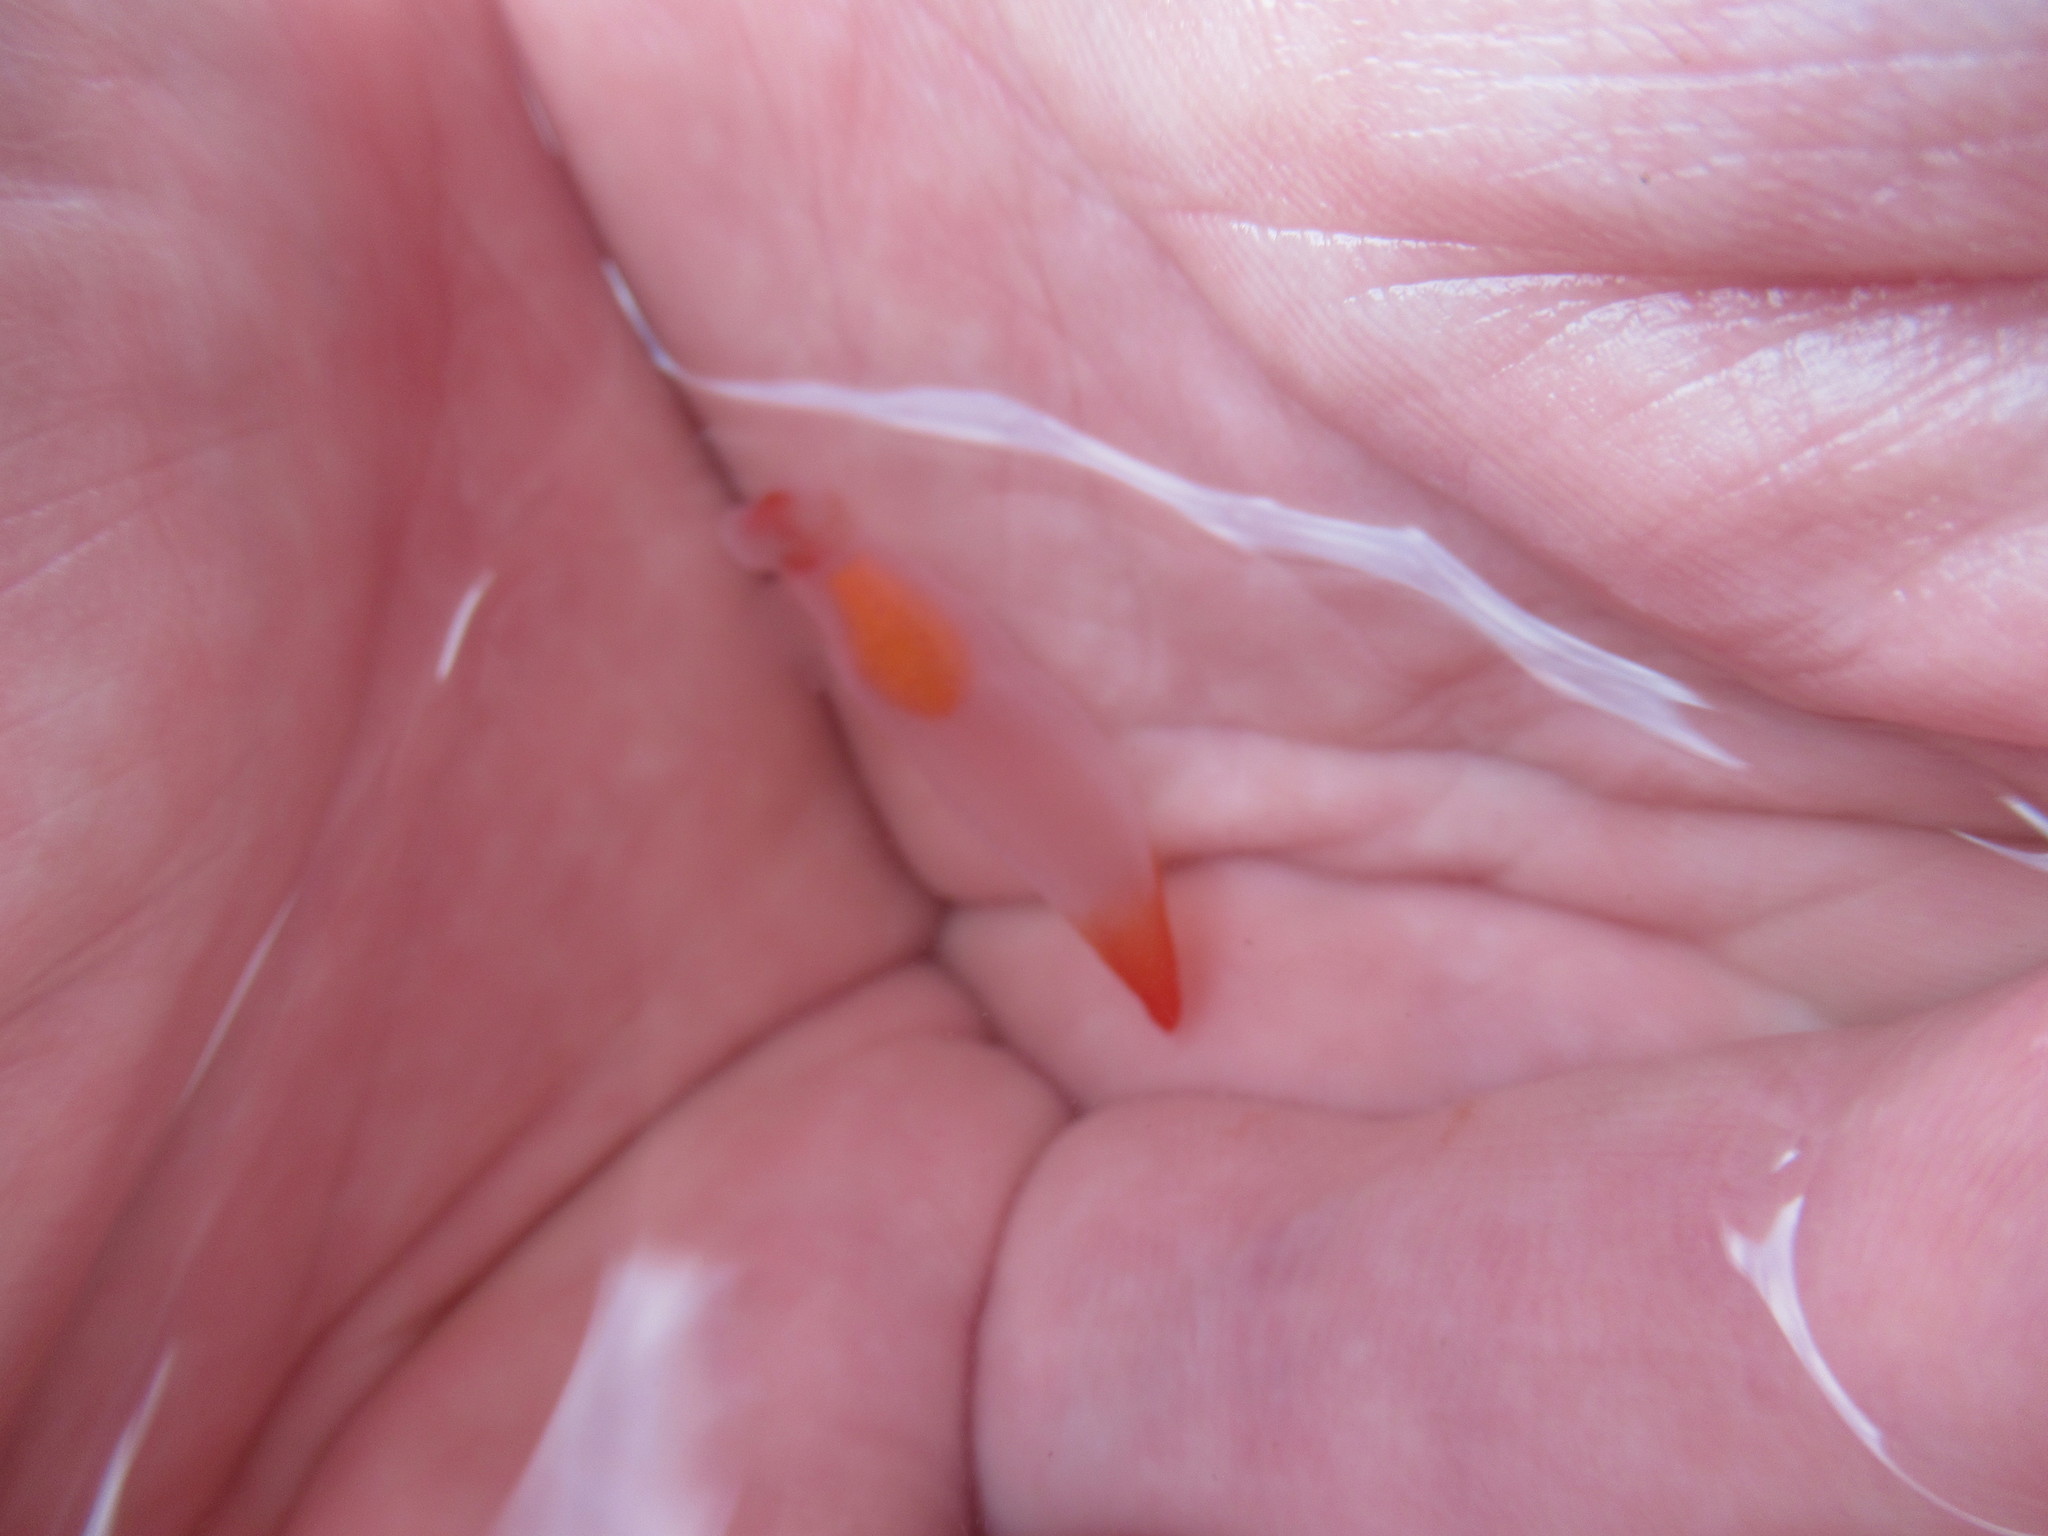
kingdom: Animalia
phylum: Mollusca
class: Gastropoda
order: Pteropoda
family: Clionidae
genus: Clione
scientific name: Clione limacina
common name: Common clione
